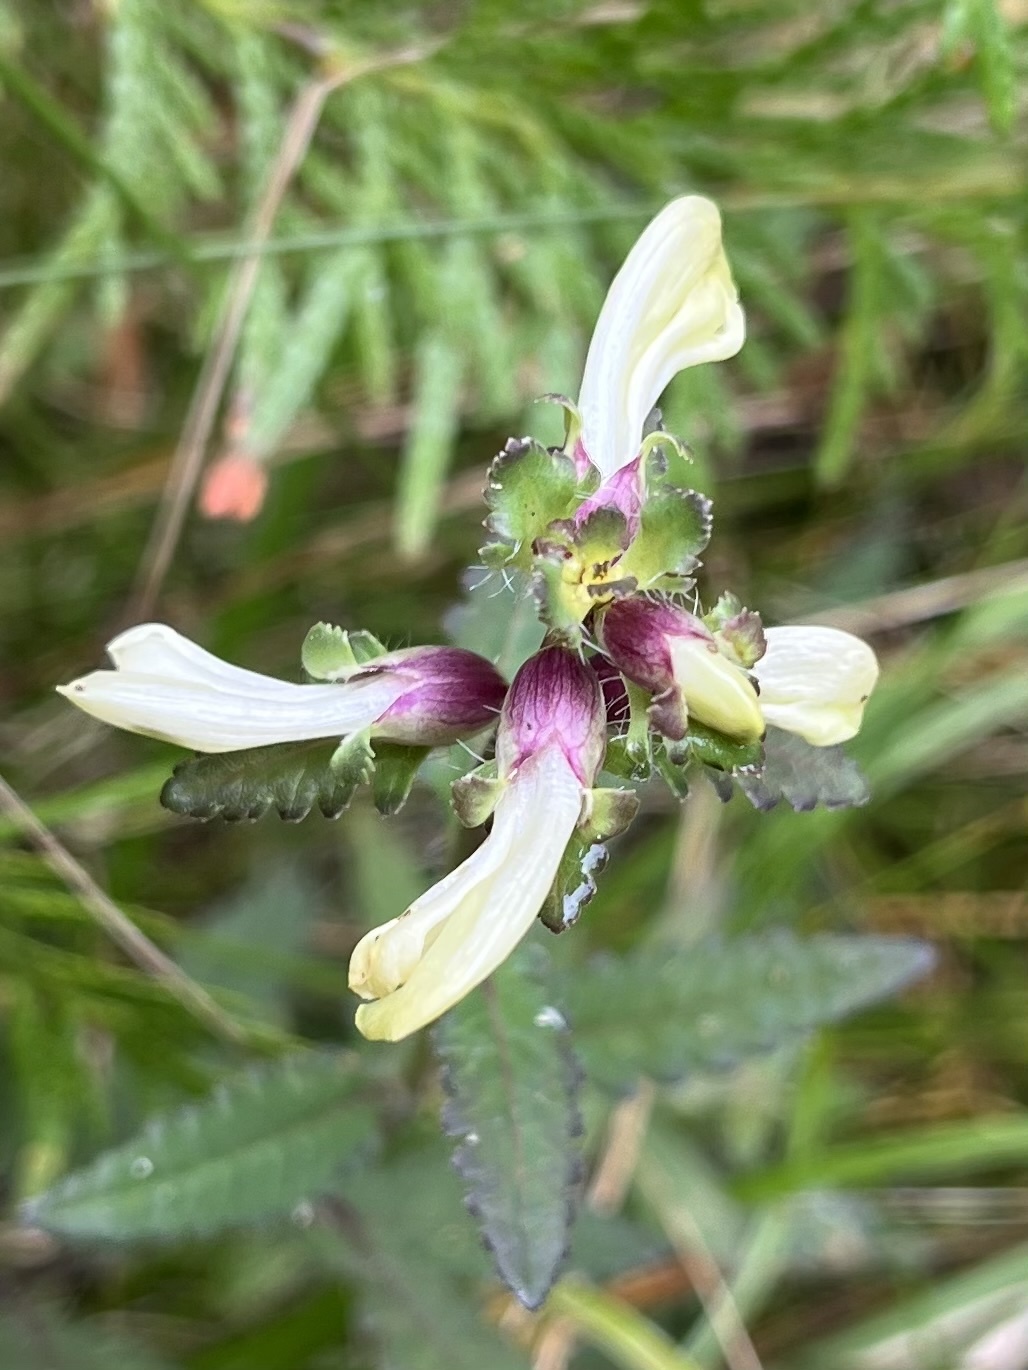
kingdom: Plantae
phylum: Tracheophyta
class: Magnoliopsida
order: Lamiales
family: Orobanchaceae
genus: Pedicularis
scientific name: Pedicularis lanceolata
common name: Swamp lousewort
